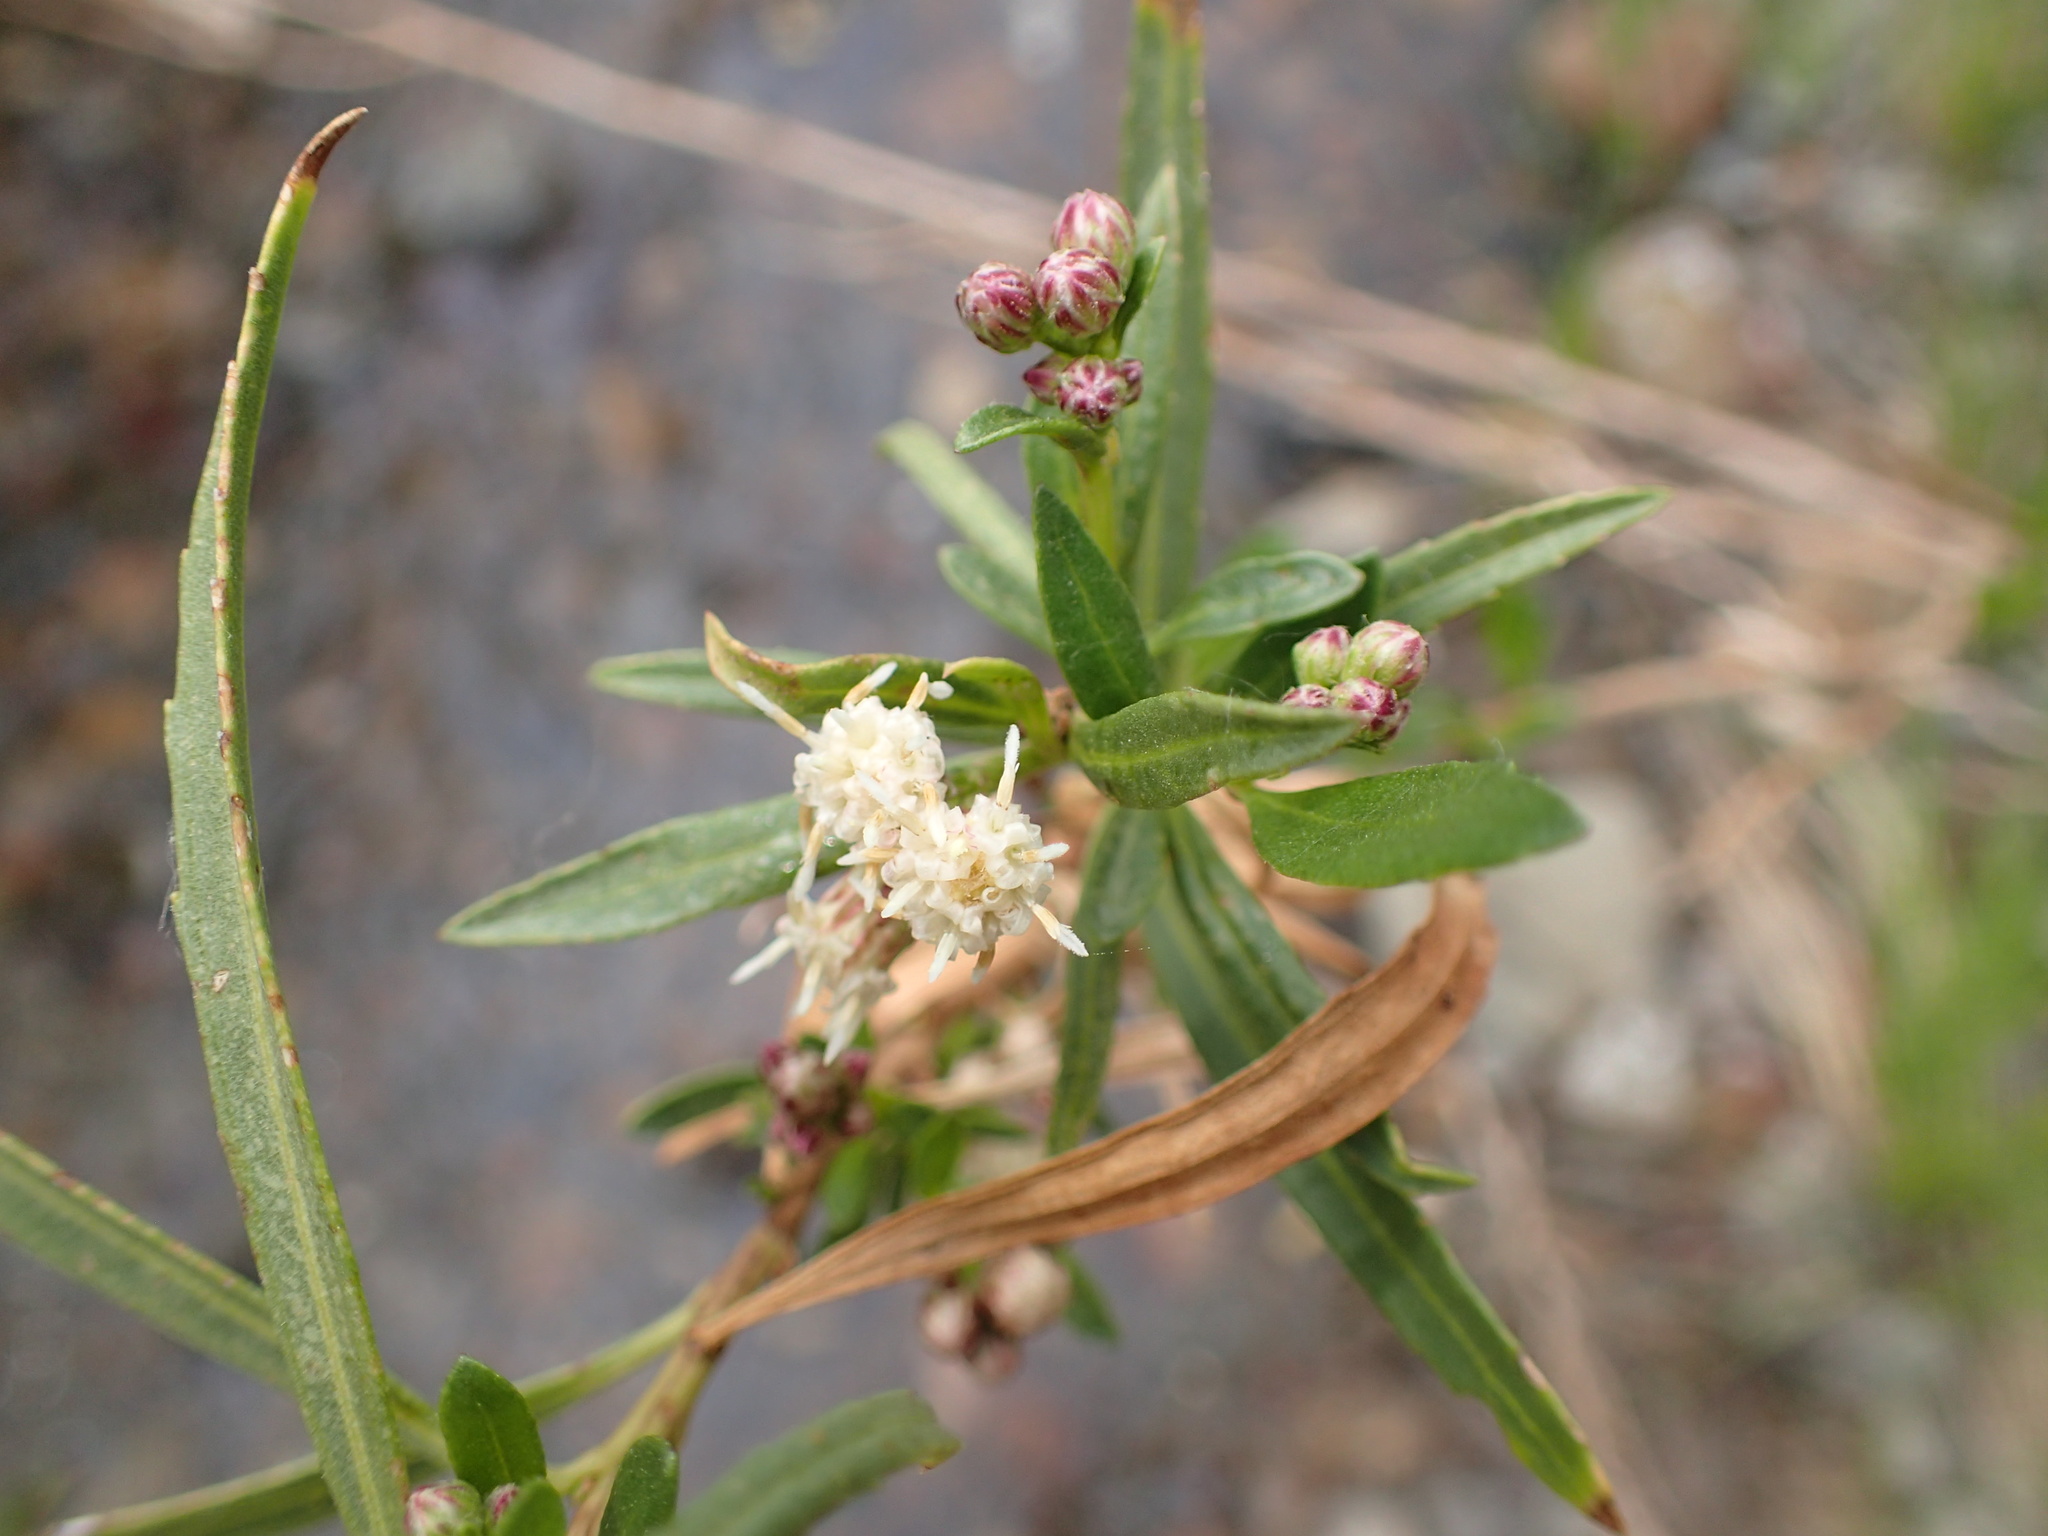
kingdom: Plantae
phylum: Tracheophyta
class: Magnoliopsida
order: Asterales
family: Asteraceae
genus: Baccharis
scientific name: Baccharis salicifolia
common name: Sticky baccharis
